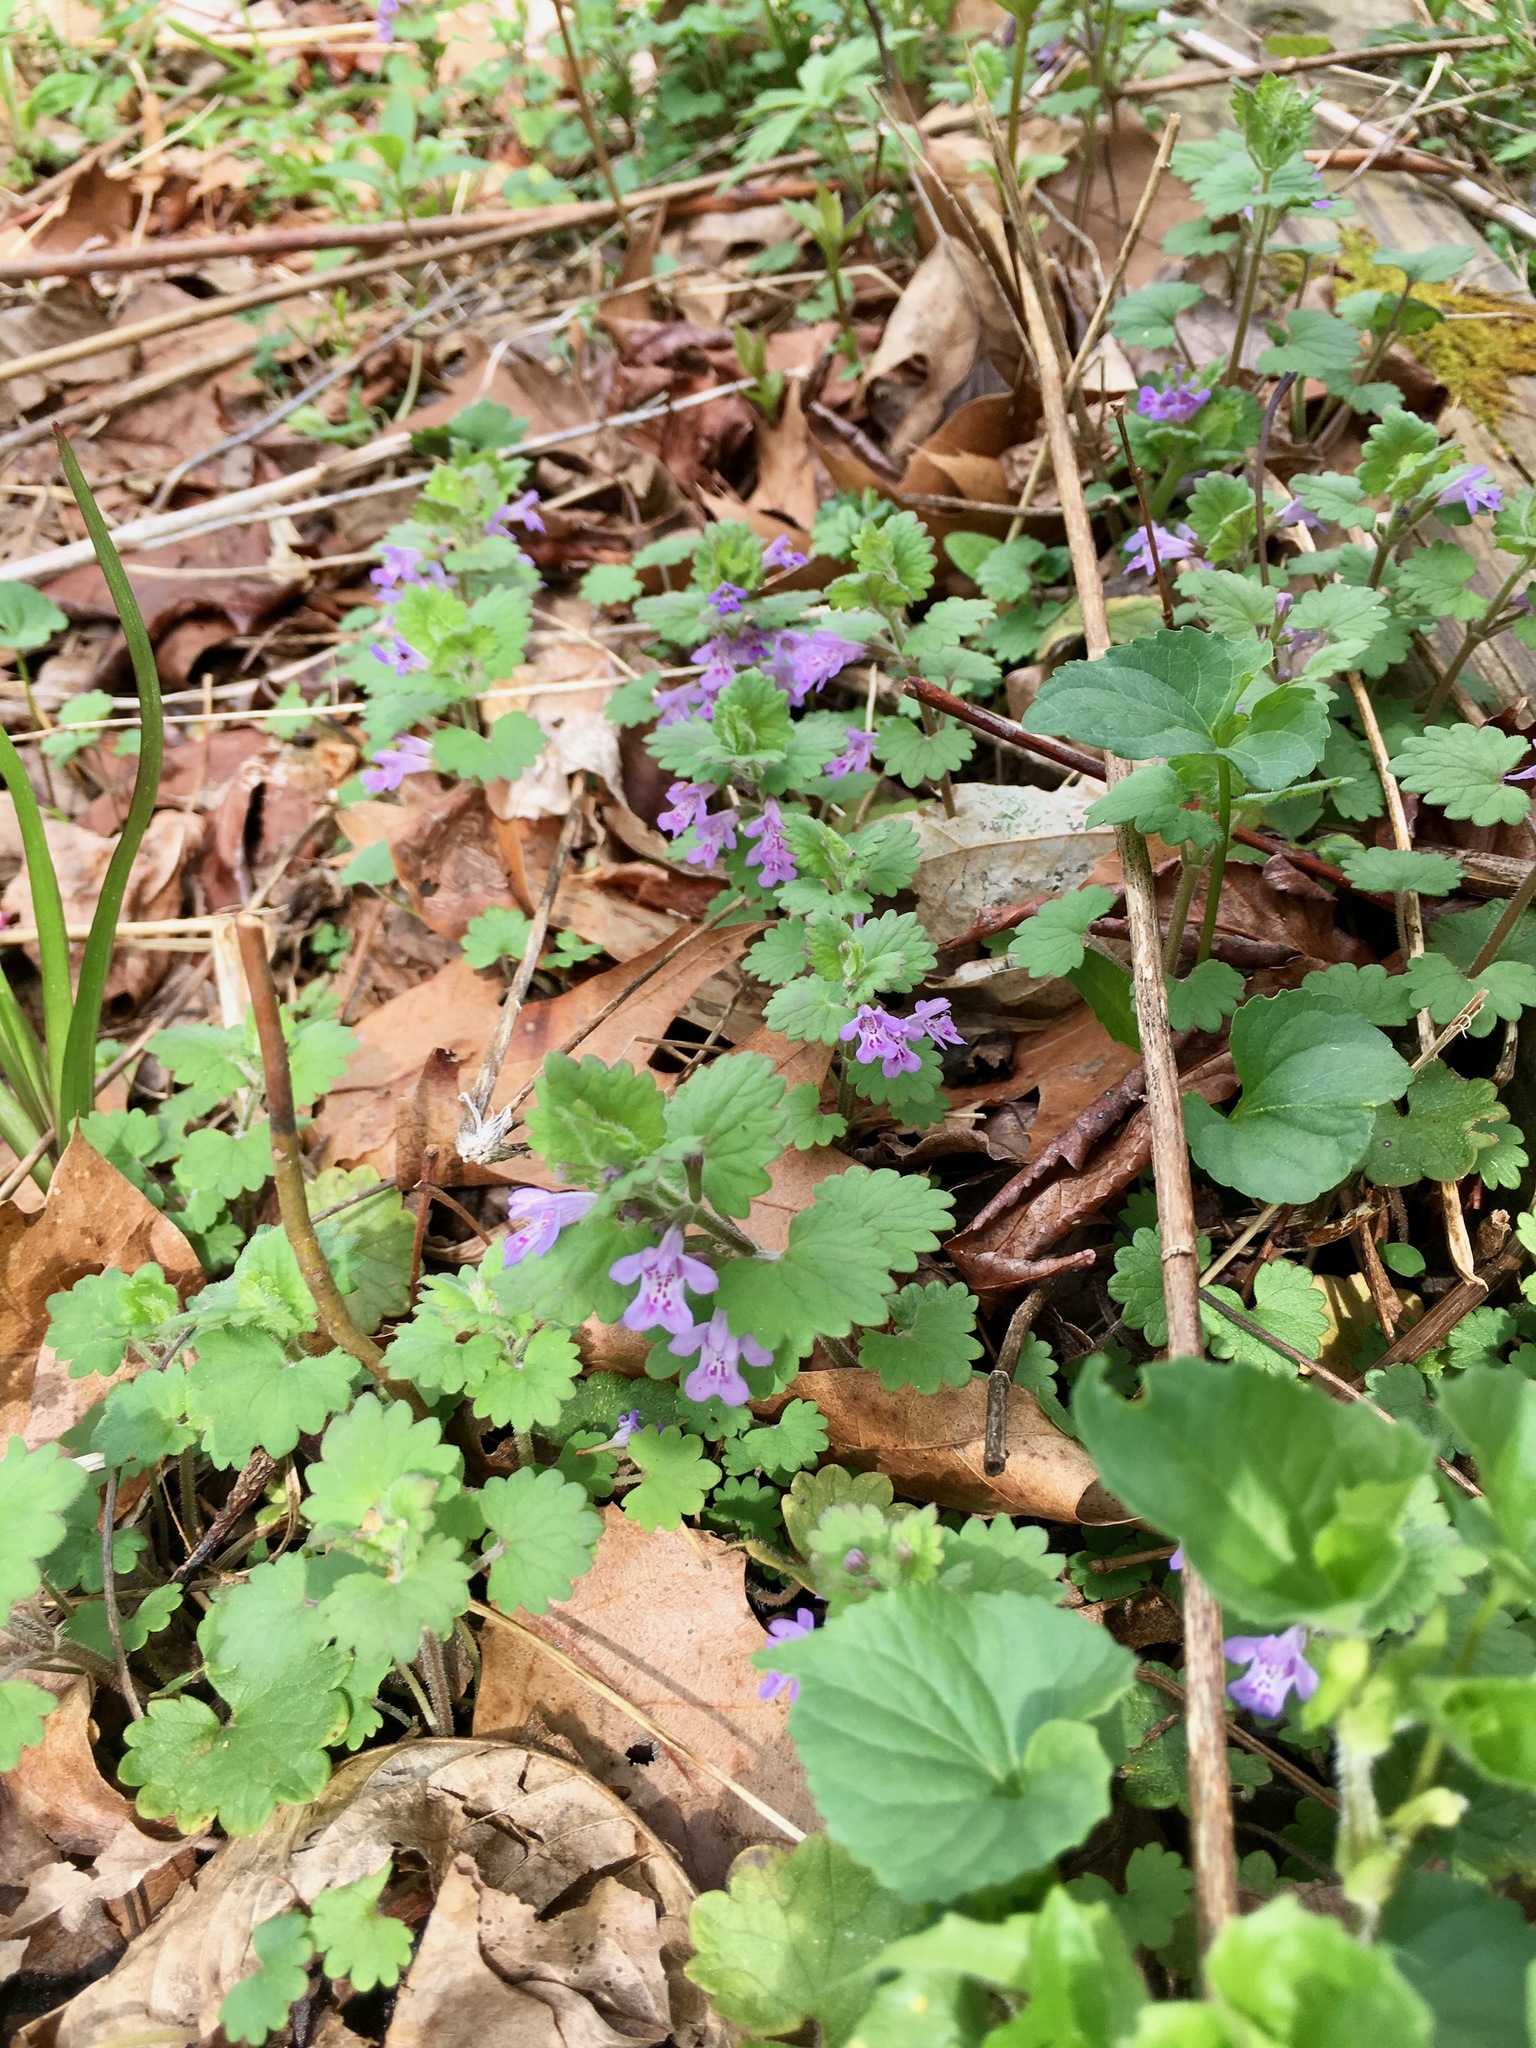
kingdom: Plantae
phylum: Tracheophyta
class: Magnoliopsida
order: Lamiales
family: Lamiaceae
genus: Glechoma
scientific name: Glechoma hederacea
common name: Ground ivy
